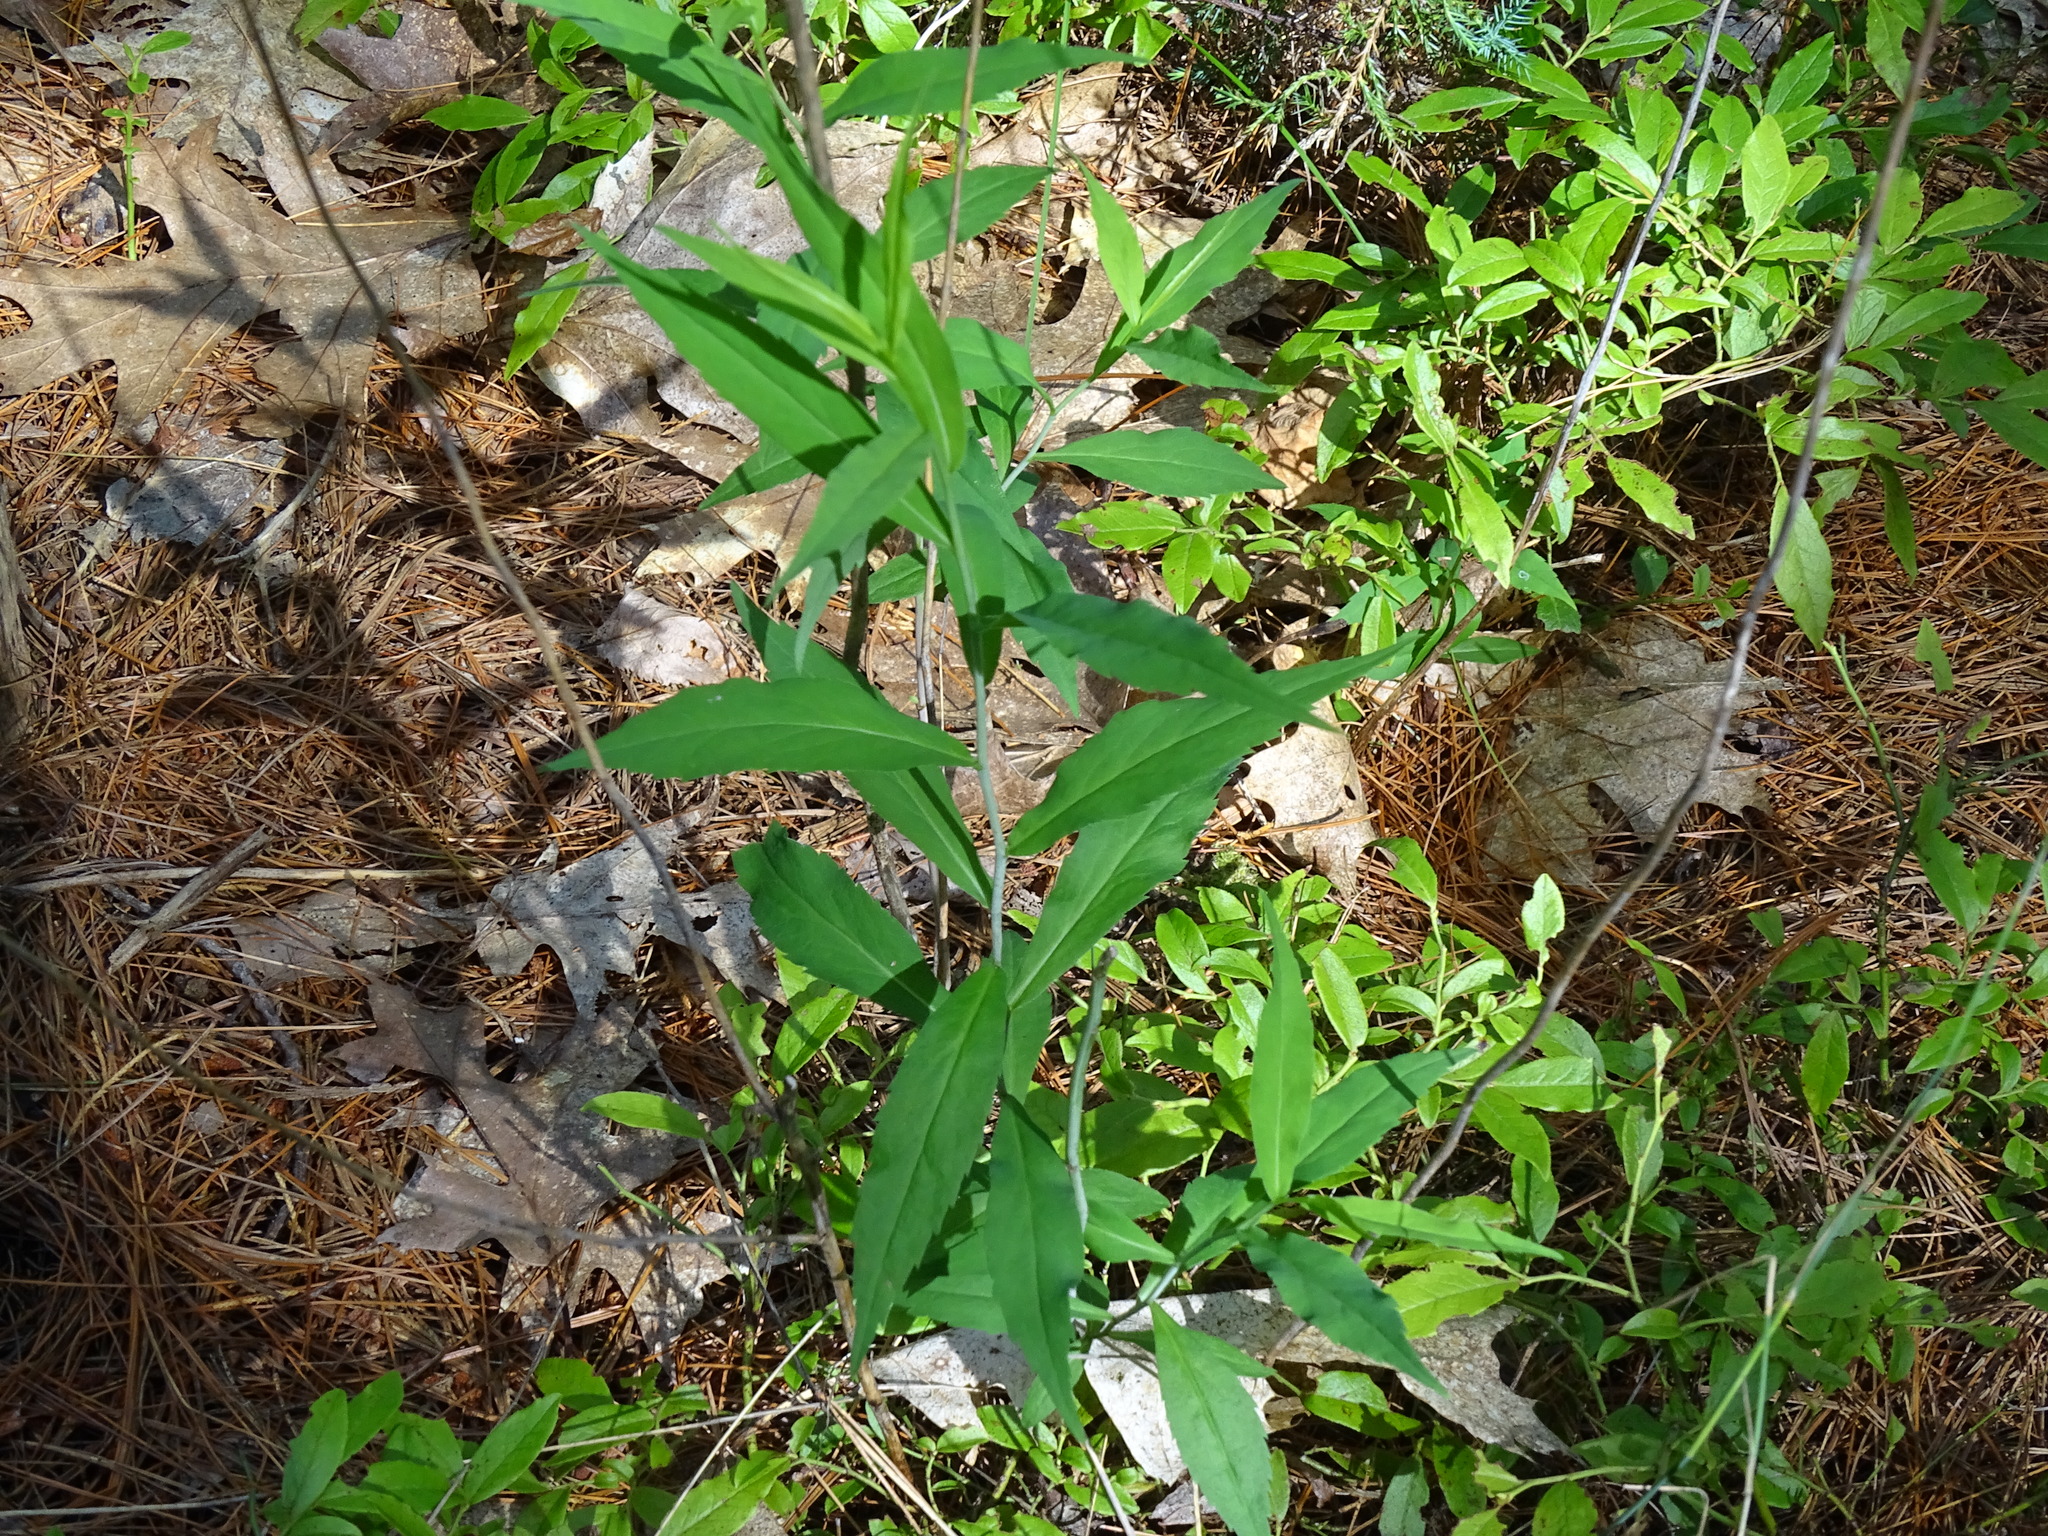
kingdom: Plantae
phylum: Tracheophyta
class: Magnoliopsida
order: Asterales
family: Asteraceae
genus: Solidago
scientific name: Solidago caesia
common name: Woodland goldenrod
